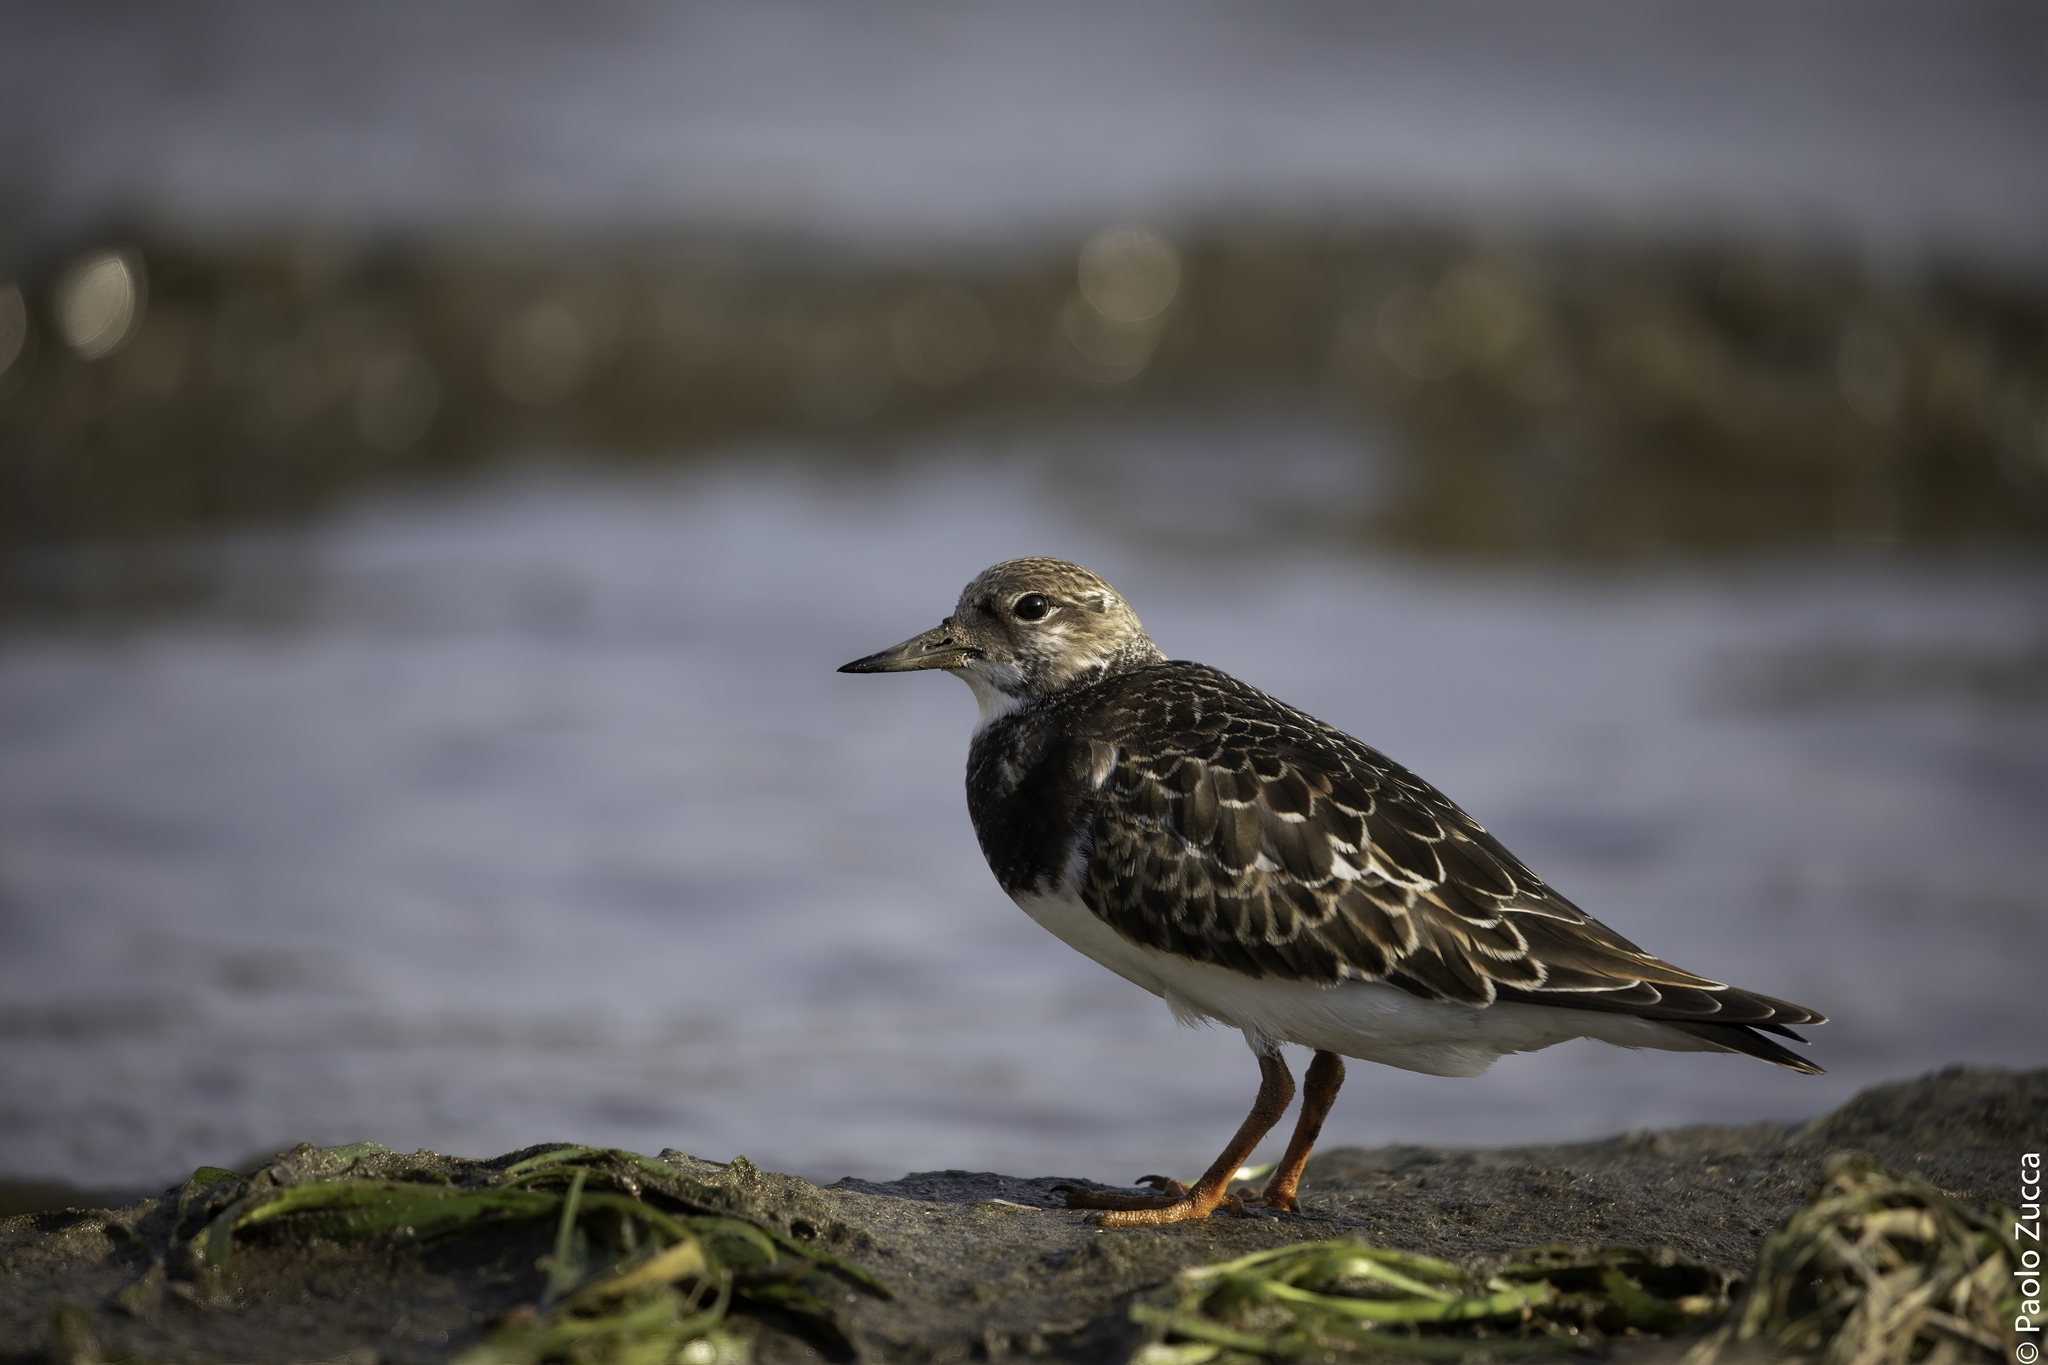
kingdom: Animalia
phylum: Chordata
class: Aves
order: Charadriiformes
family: Scolopacidae
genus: Arenaria
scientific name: Arenaria interpres
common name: Ruddy turnstone
